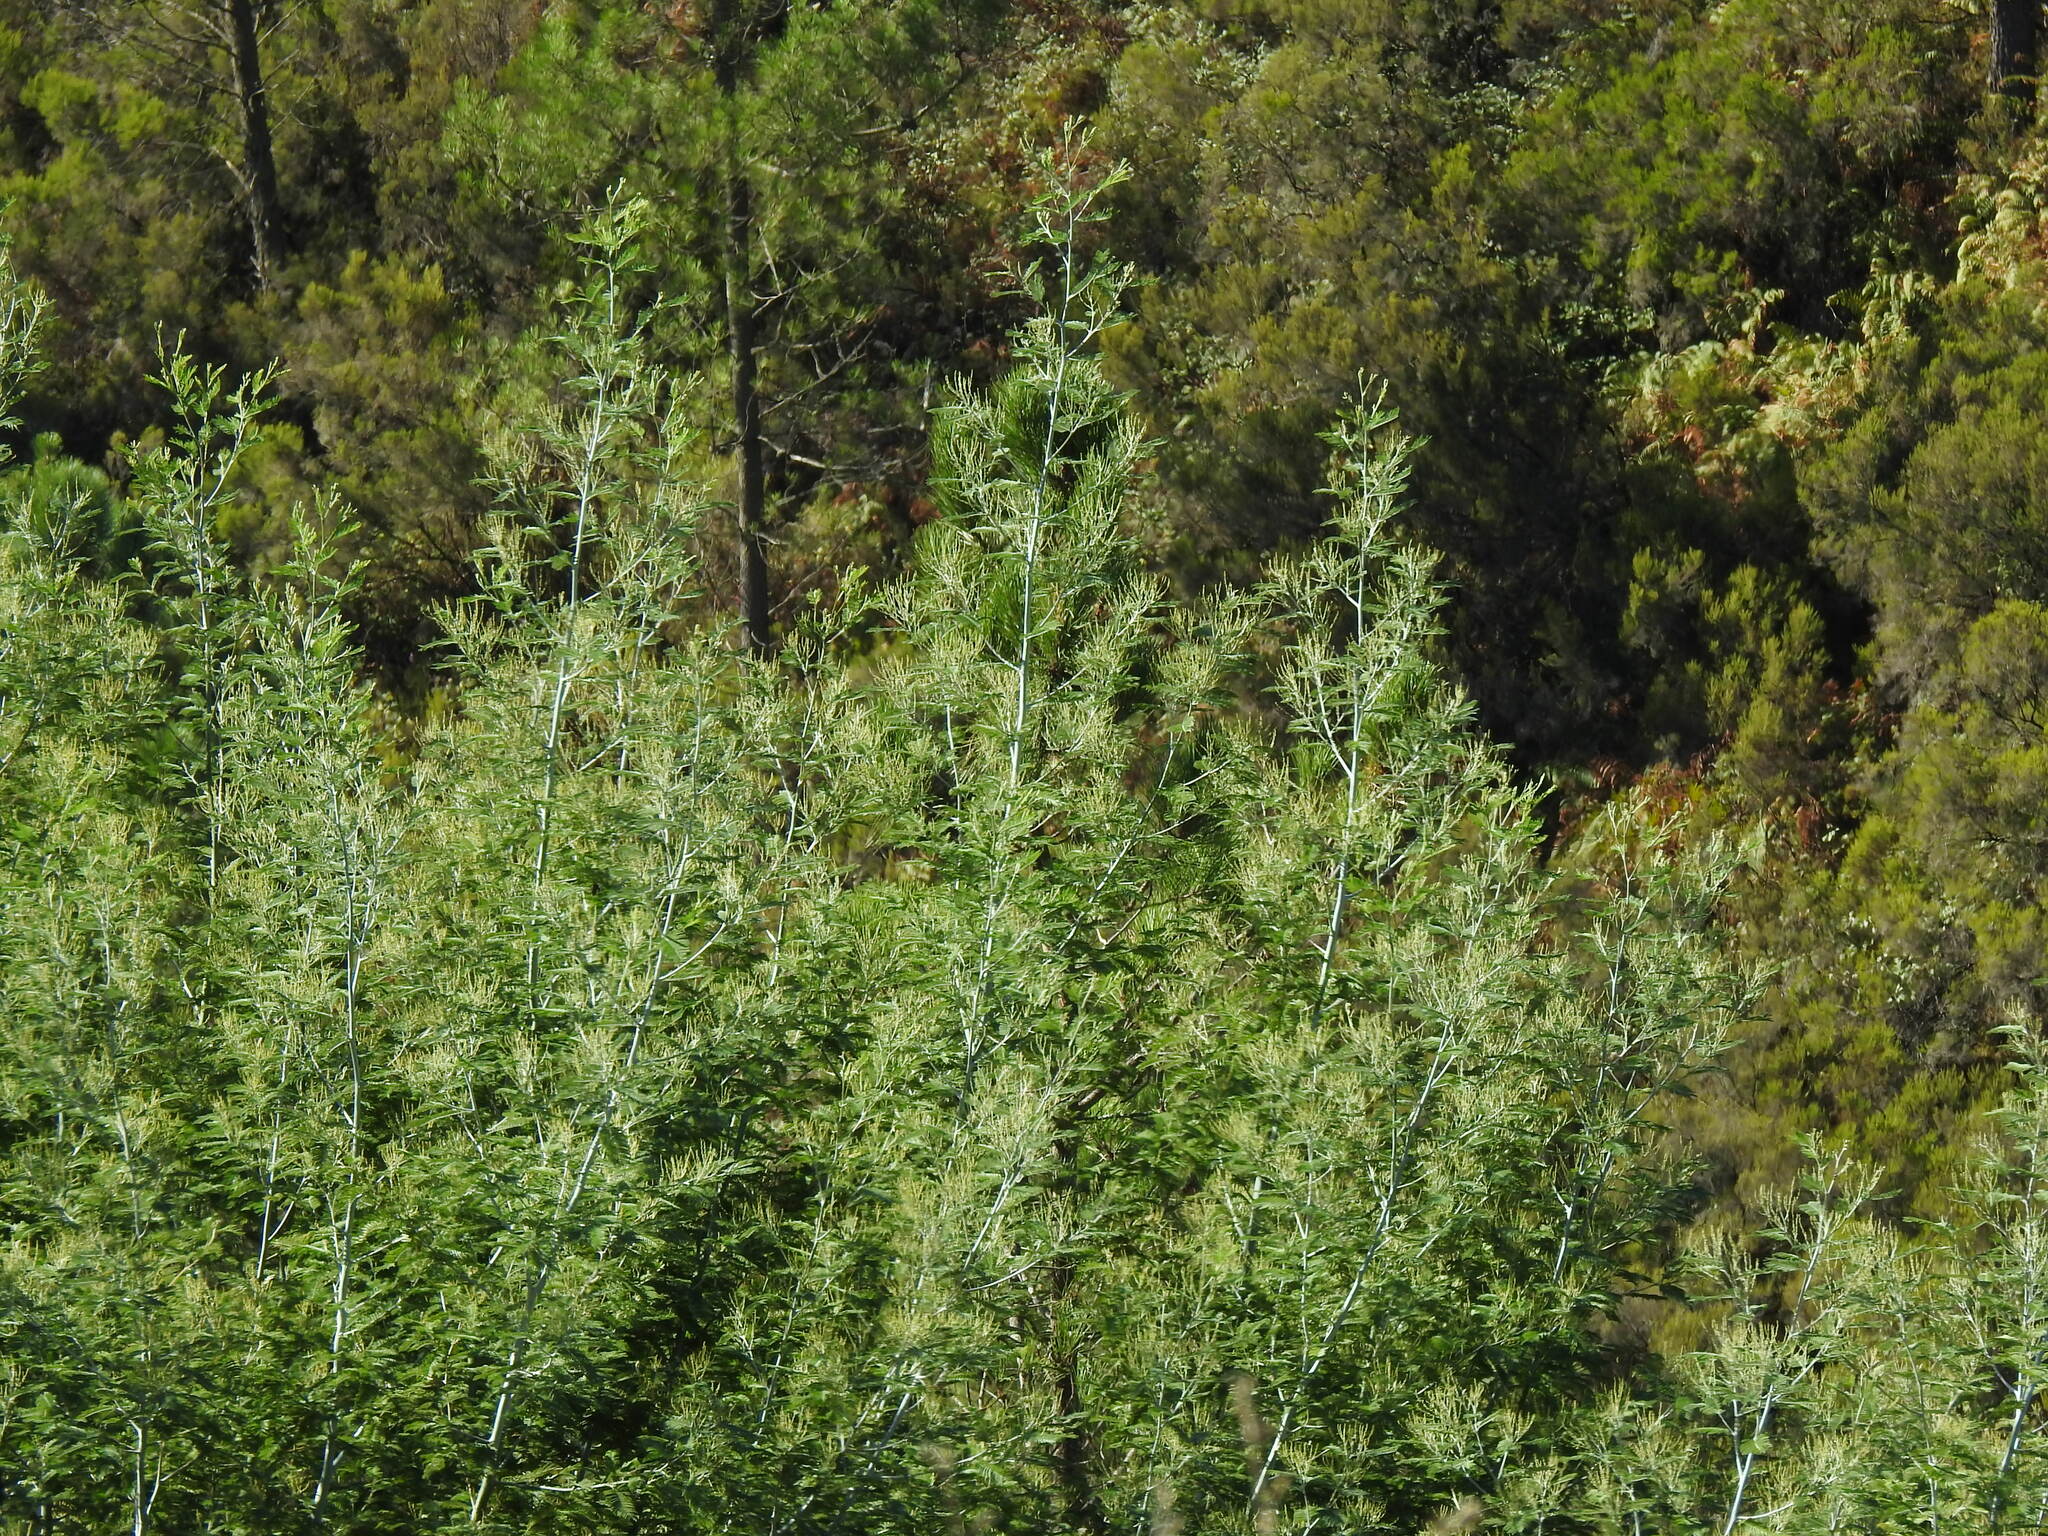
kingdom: Plantae
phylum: Tracheophyta
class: Magnoliopsida
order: Fabales
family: Fabaceae
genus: Acacia
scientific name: Acacia dealbata
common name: Silver wattle
